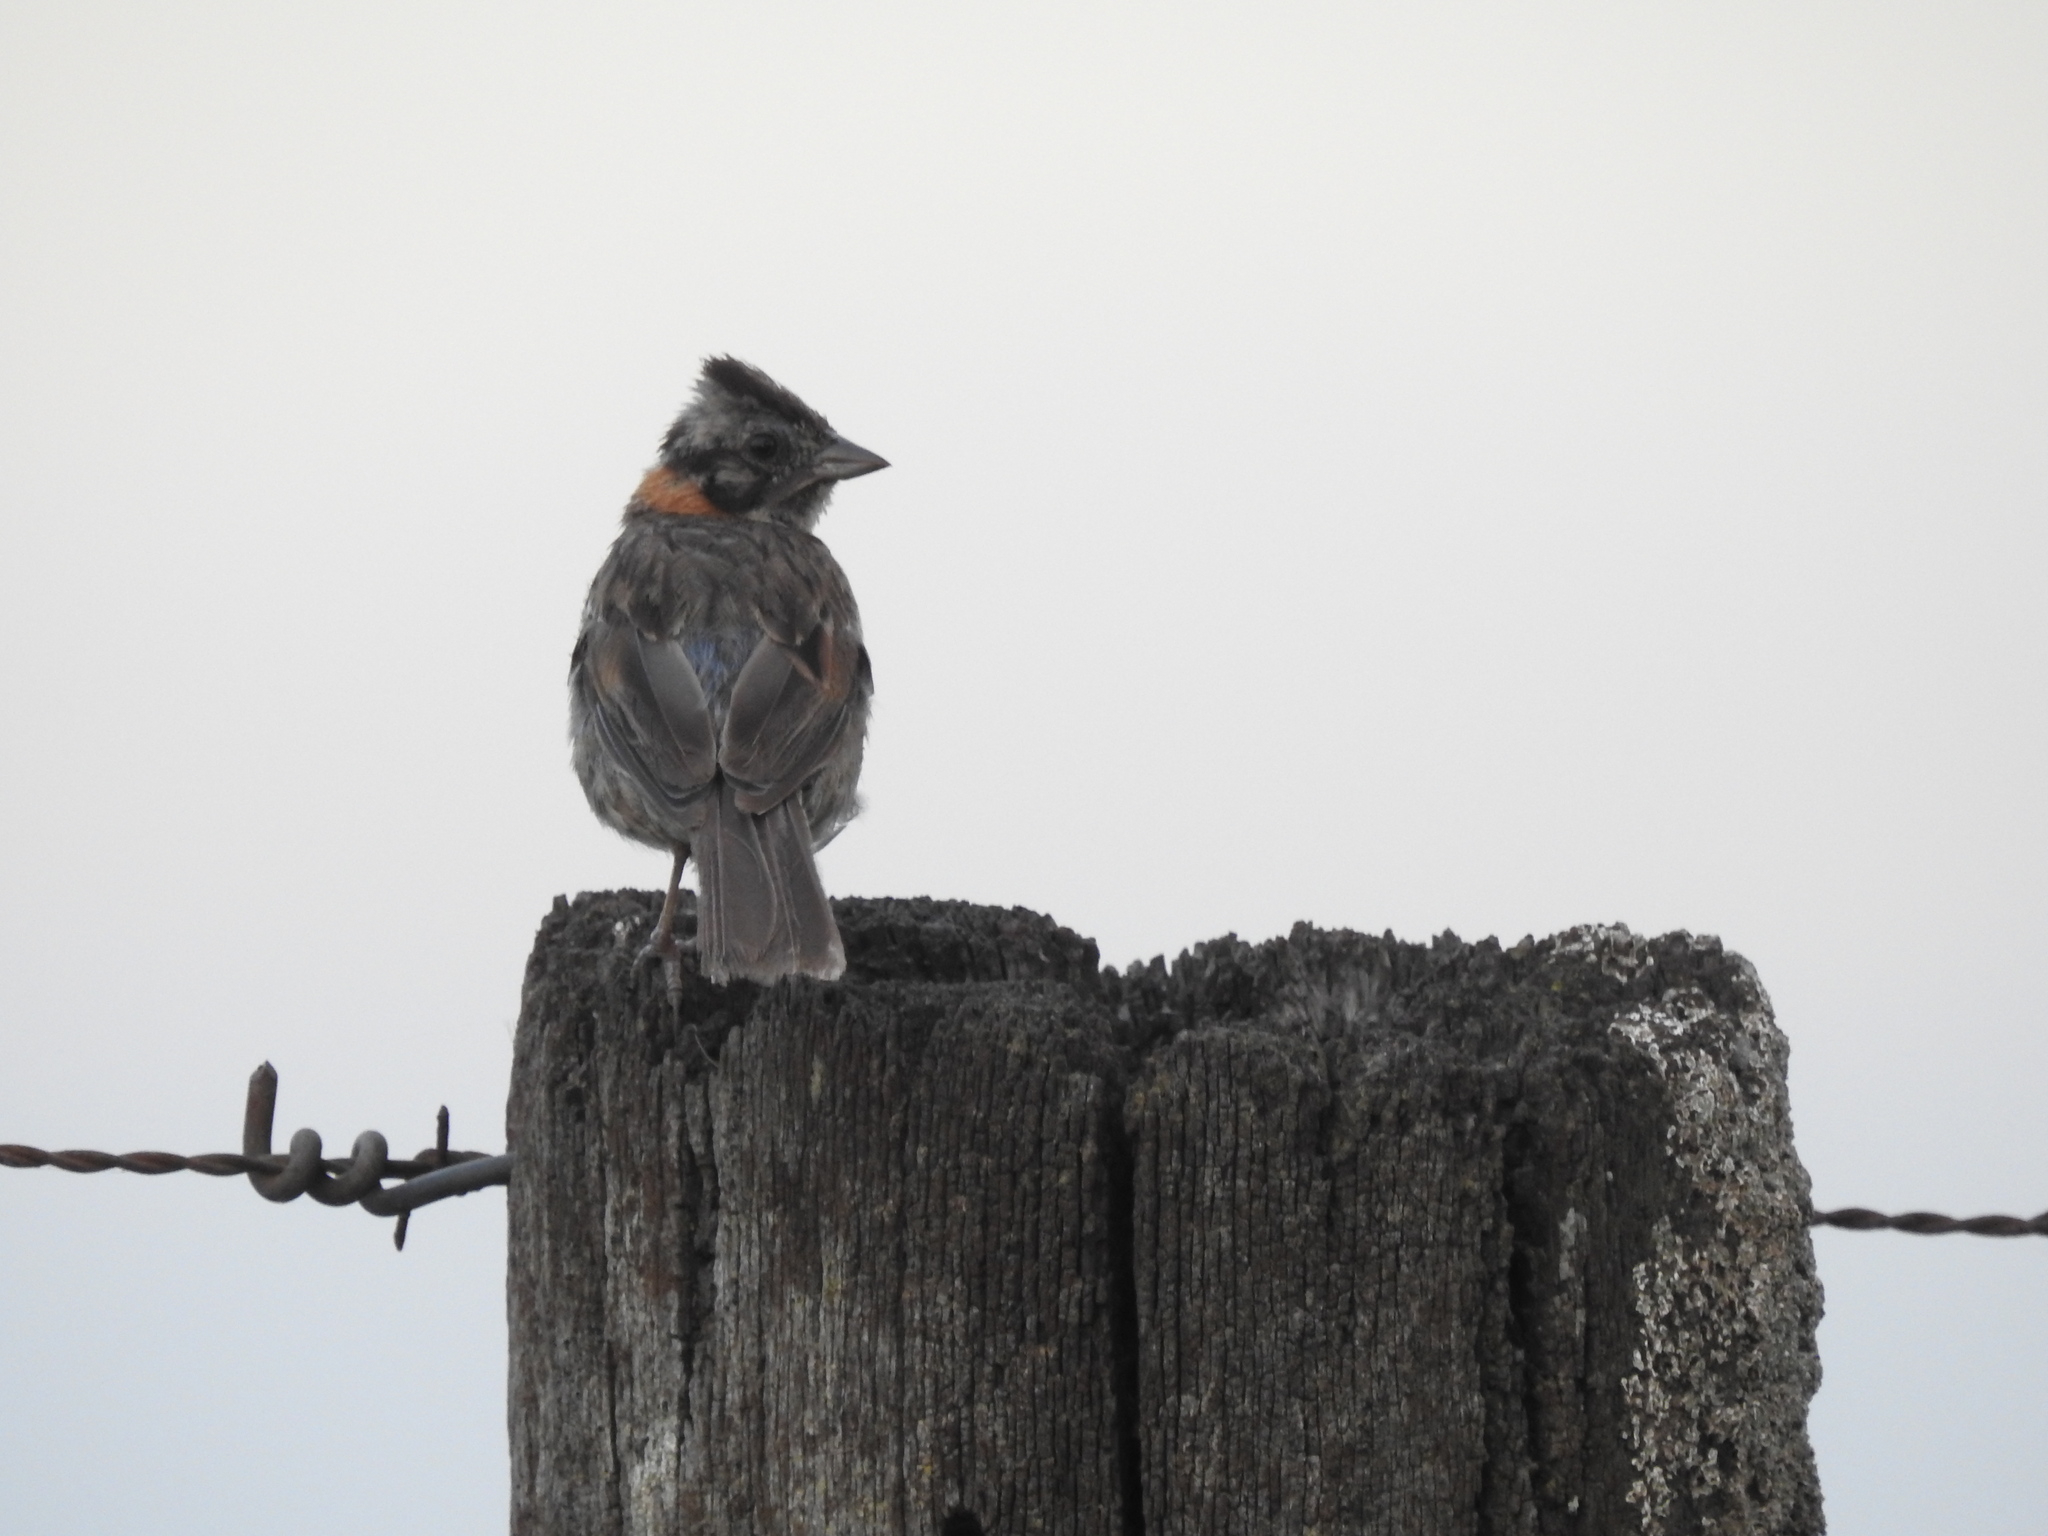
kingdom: Animalia
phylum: Chordata
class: Aves
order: Passeriformes
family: Passerellidae
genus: Zonotrichia
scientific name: Zonotrichia capensis
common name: Rufous-collared sparrow
